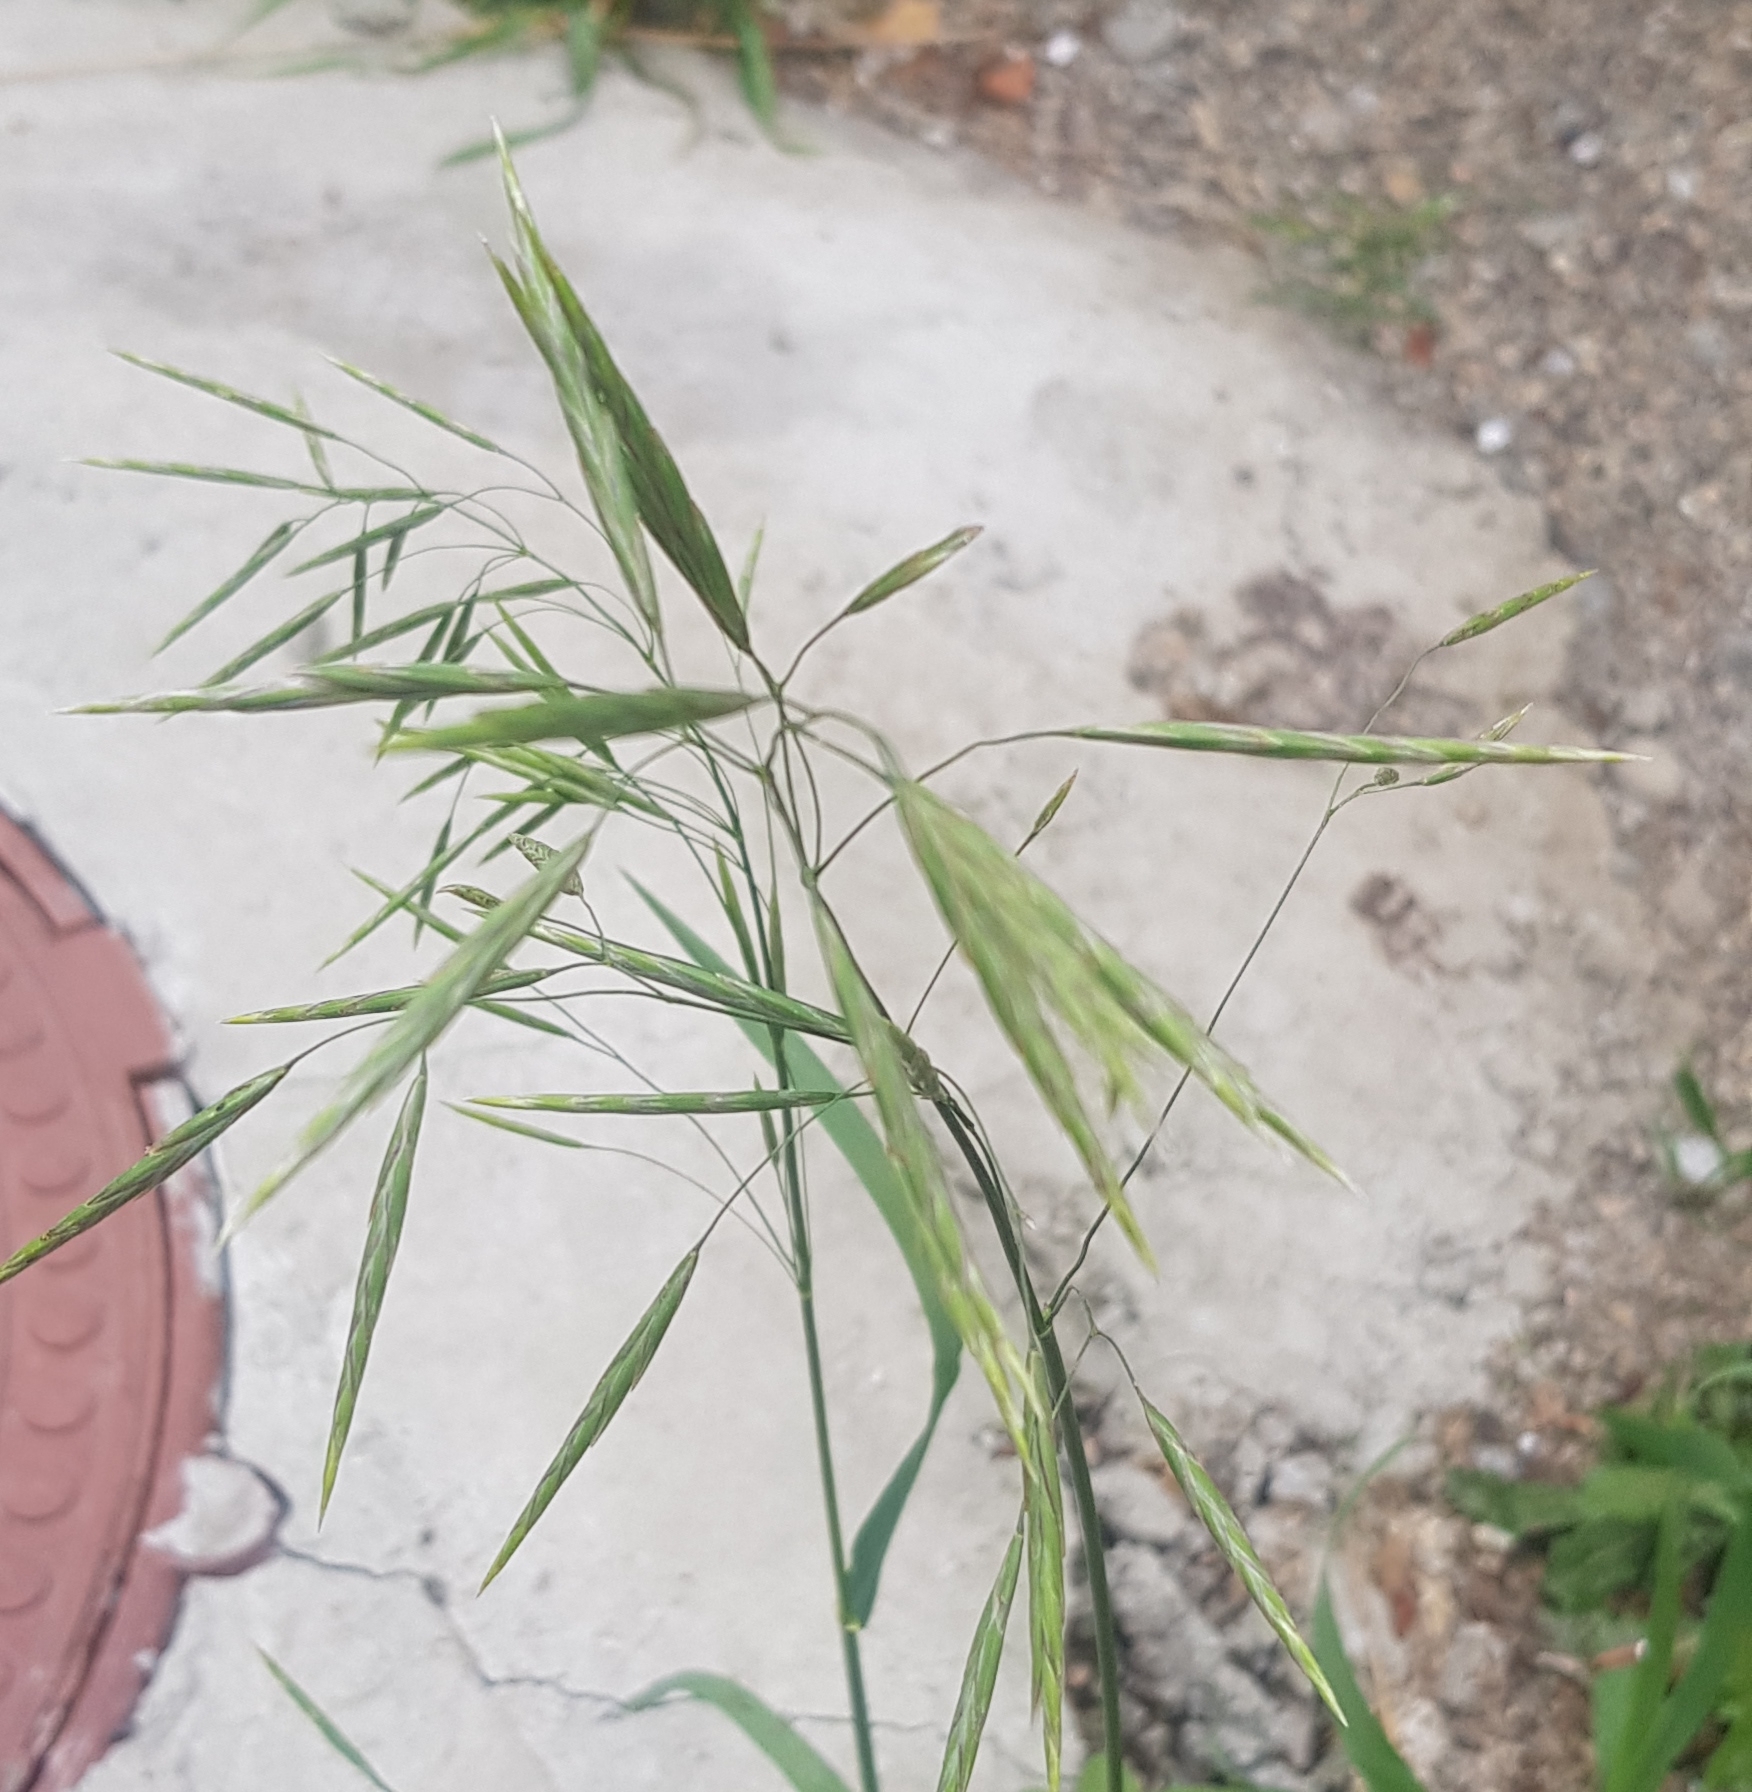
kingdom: Plantae
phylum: Tracheophyta
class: Liliopsida
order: Poales
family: Poaceae
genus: Bromus
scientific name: Bromus inermis
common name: Smooth brome
